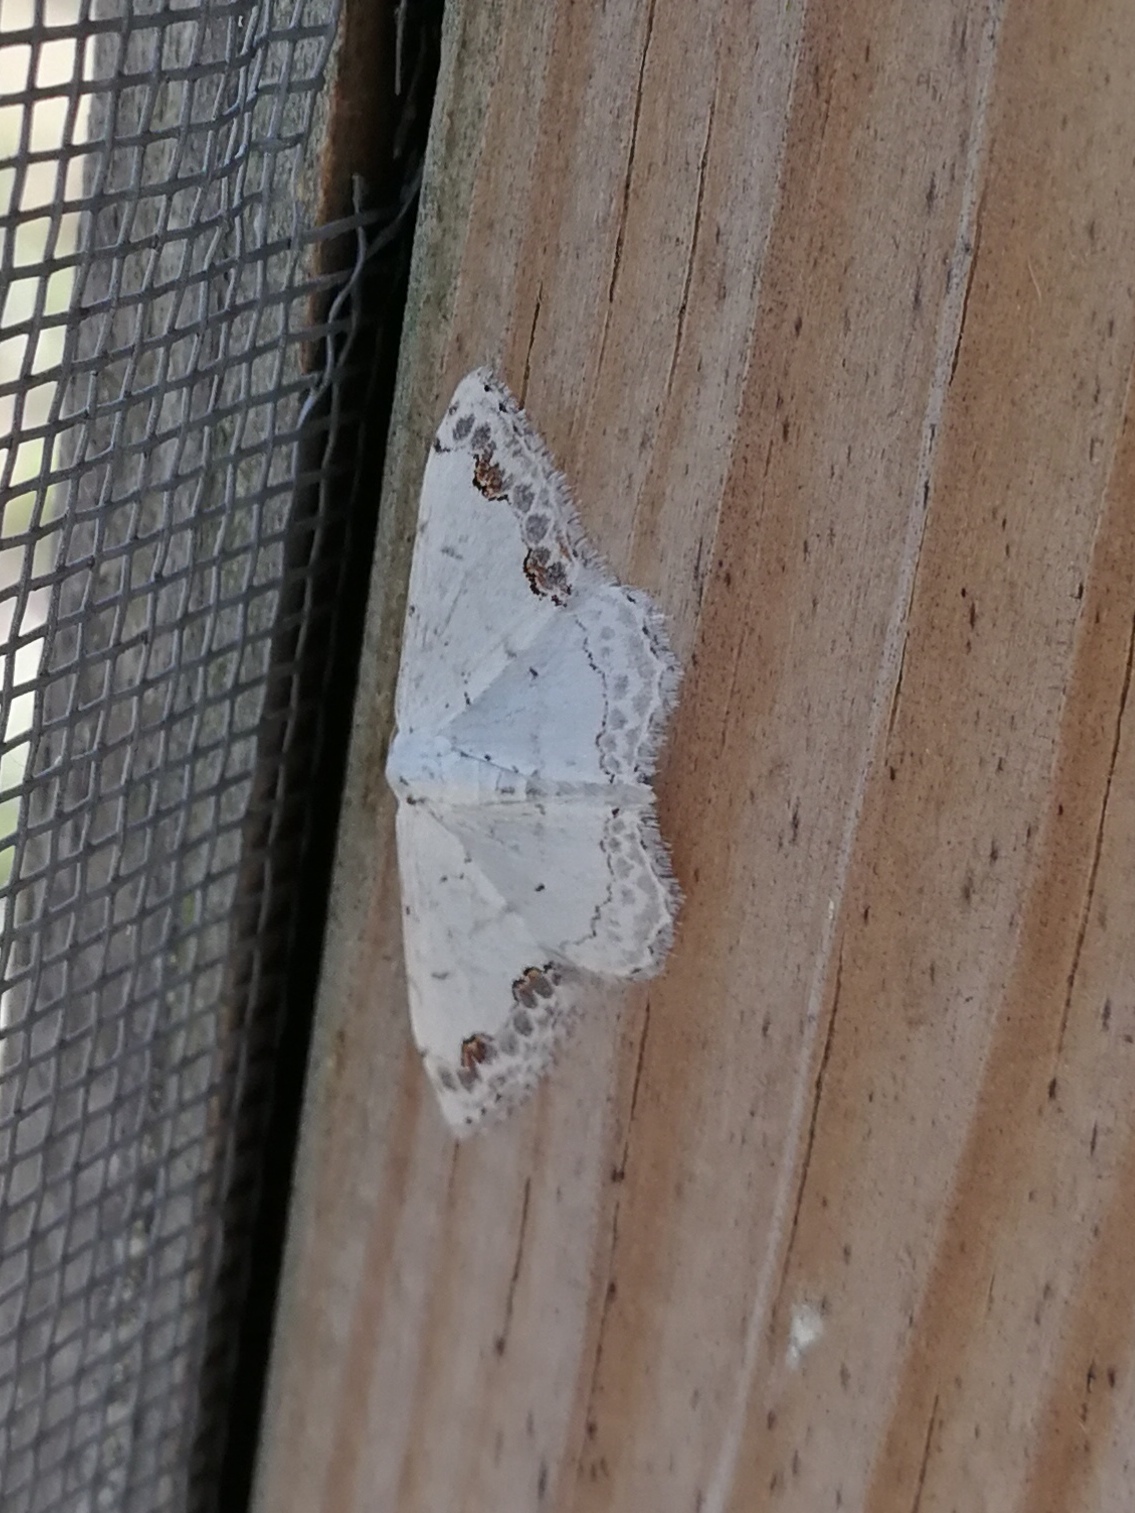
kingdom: Animalia
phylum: Arthropoda
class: Insecta
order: Lepidoptera
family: Geometridae
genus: Scopula
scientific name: Scopula decorata
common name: Middle lace border
